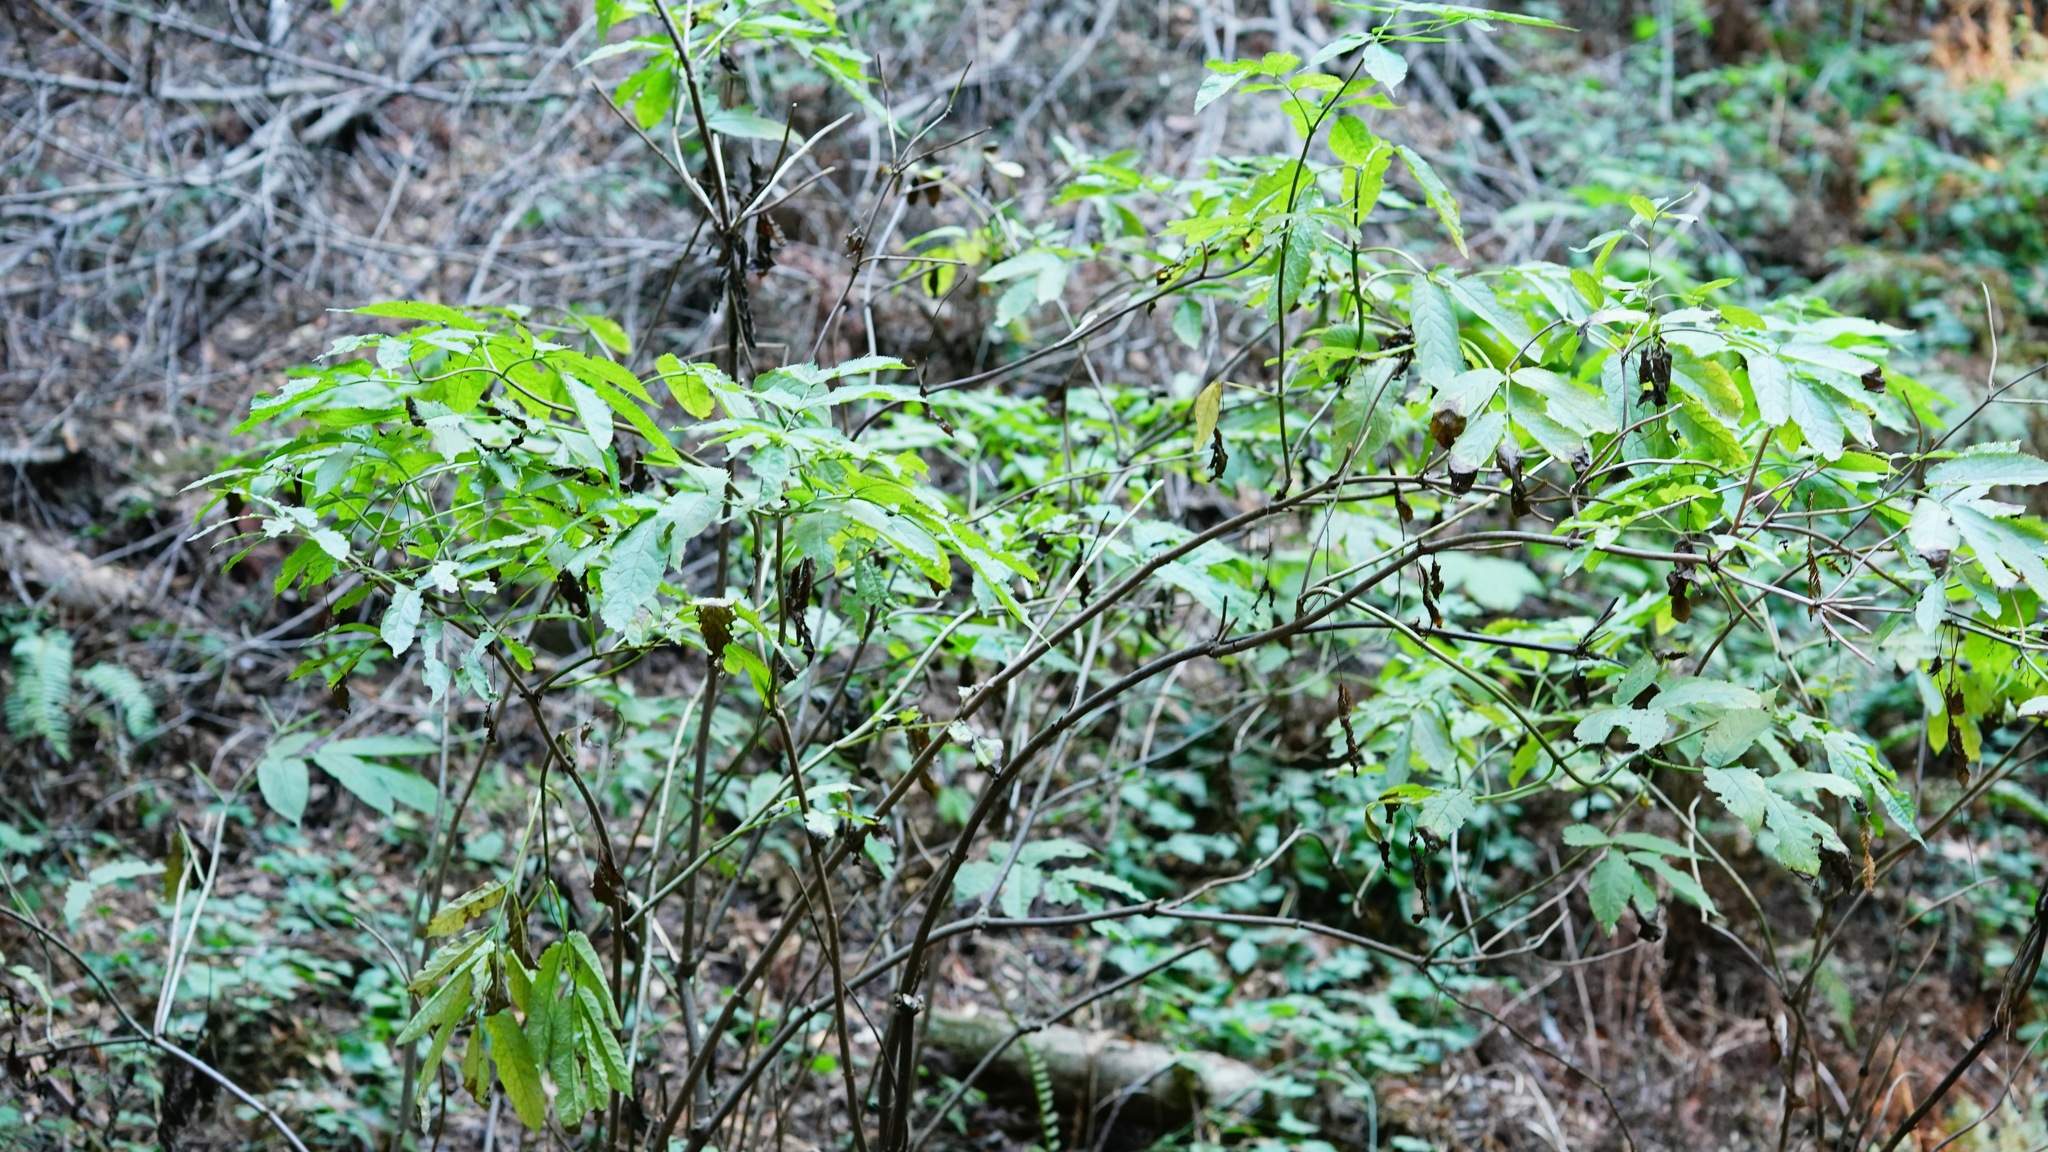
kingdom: Plantae
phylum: Tracheophyta
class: Magnoliopsida
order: Dipsacales
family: Viburnaceae
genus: Sambucus
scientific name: Sambucus racemosa
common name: Red-berried elder
